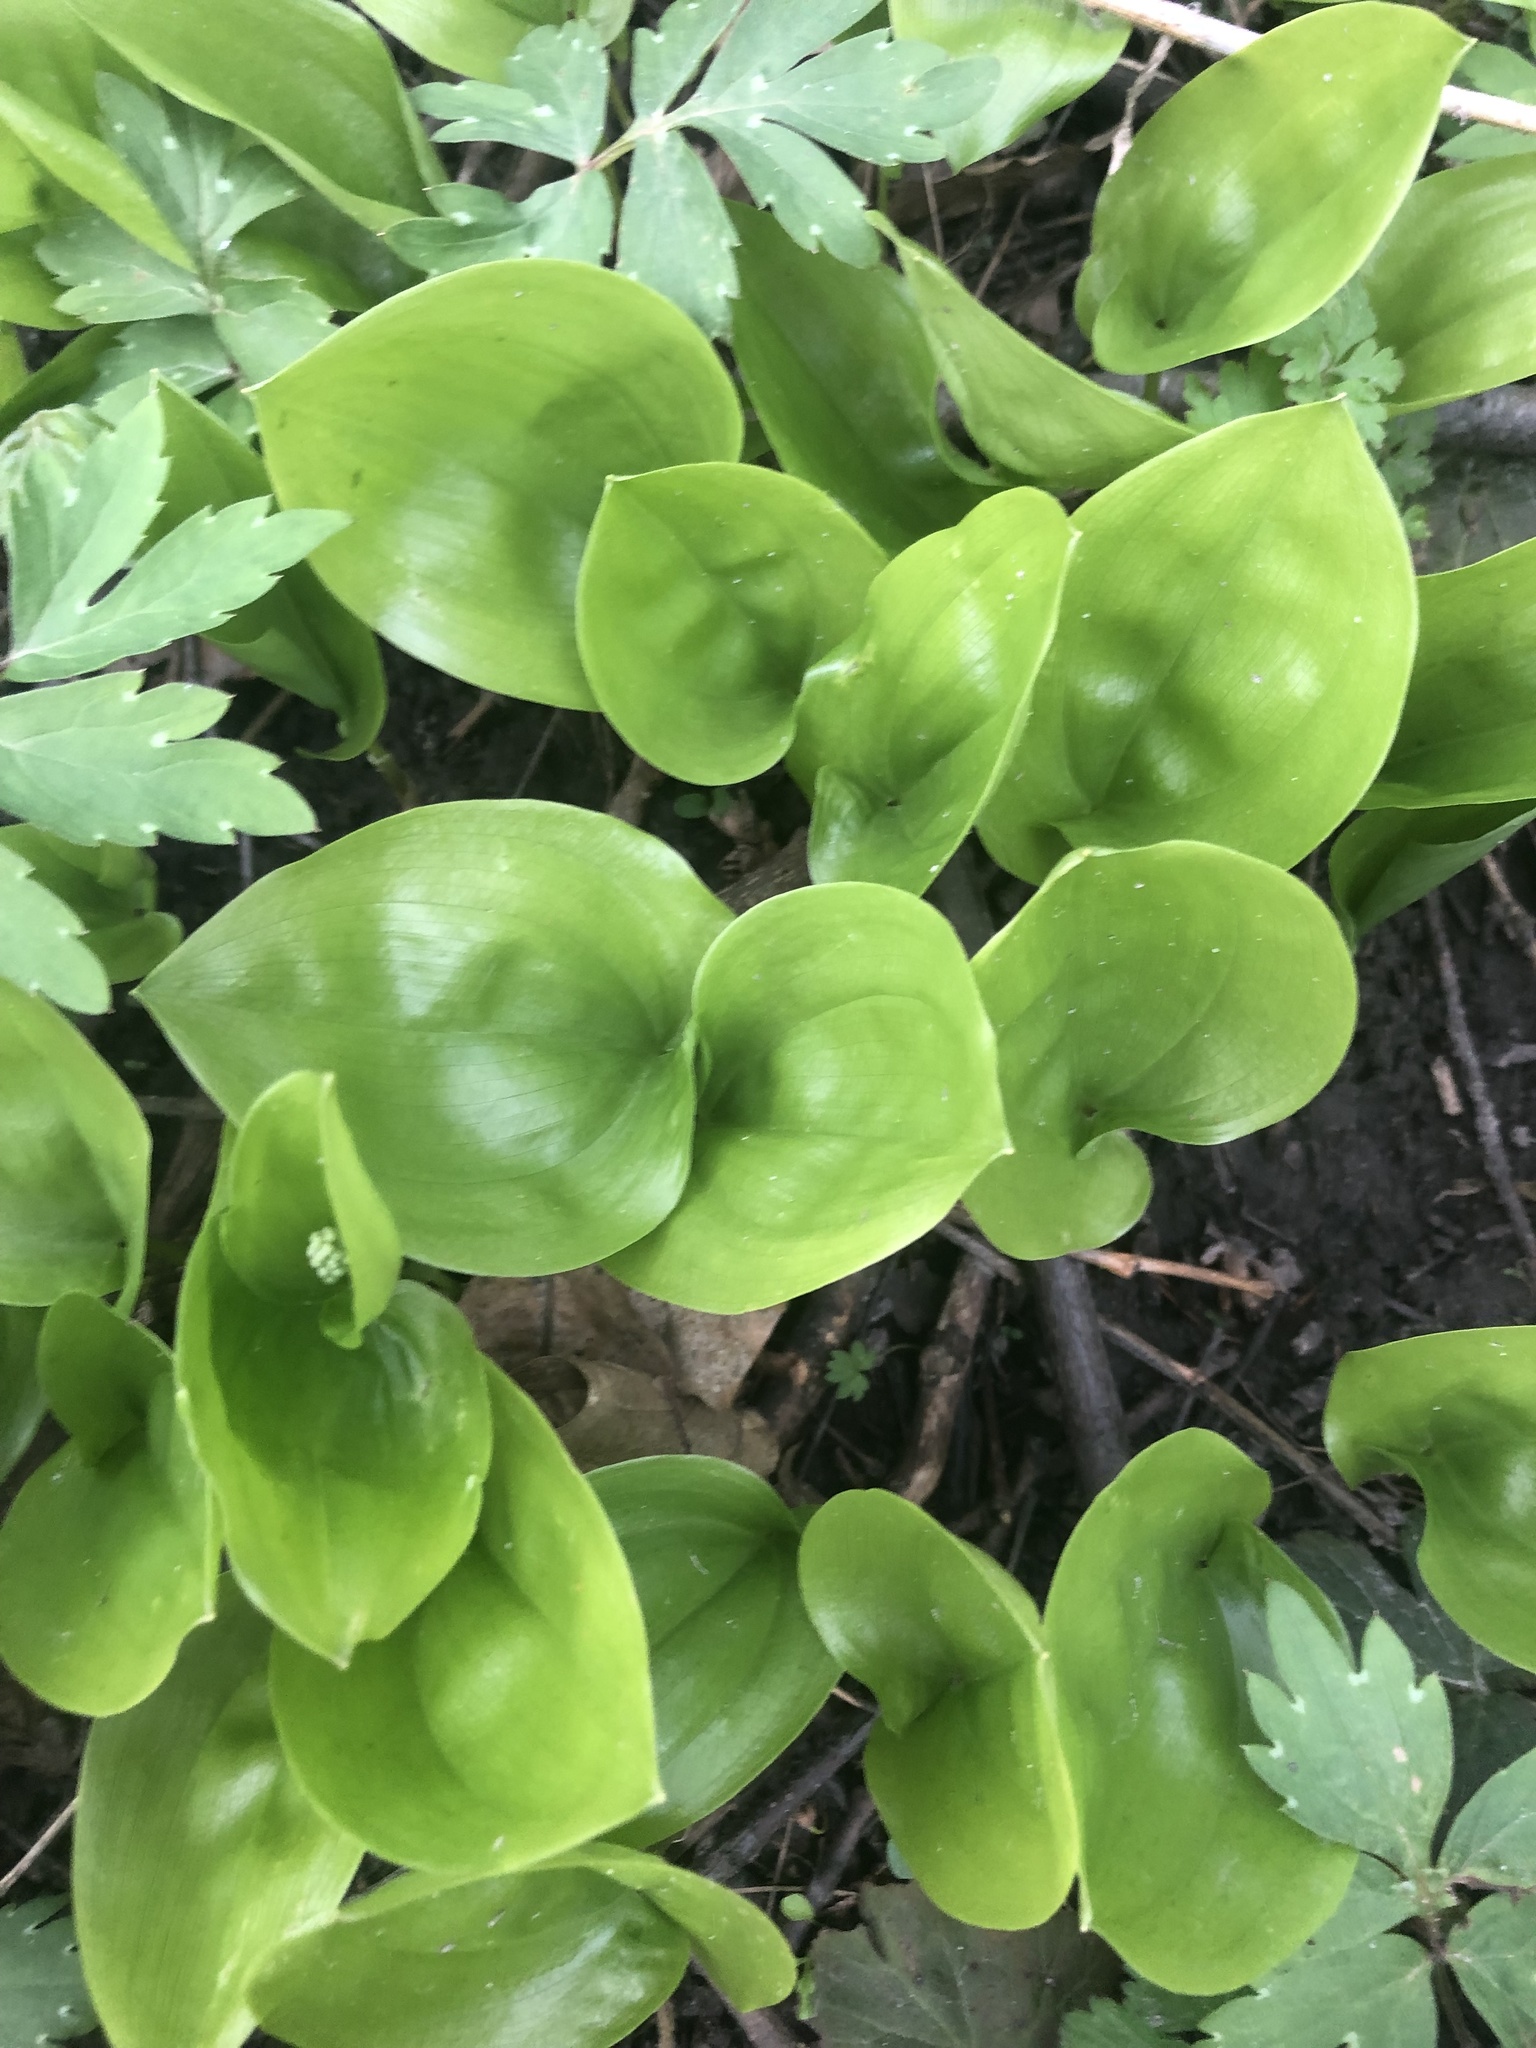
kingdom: Plantae
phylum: Tracheophyta
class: Liliopsida
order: Asparagales
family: Asparagaceae
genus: Maianthemum
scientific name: Maianthemum canadense
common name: False lily-of-the-valley
